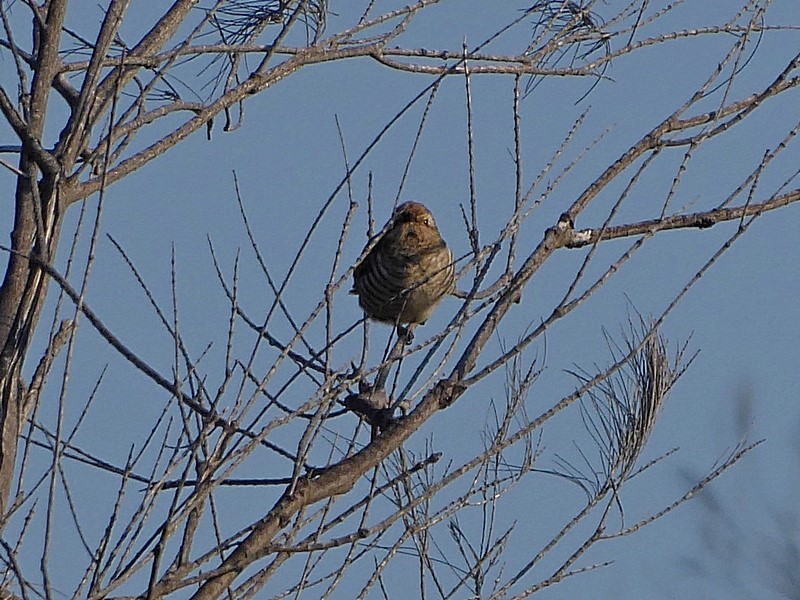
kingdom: Animalia
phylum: Chordata
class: Aves
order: Cuculiformes
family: Cuculidae
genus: Chrysococcyx
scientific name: Chrysococcyx basalis
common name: Horsfield's bronze cuckoo
